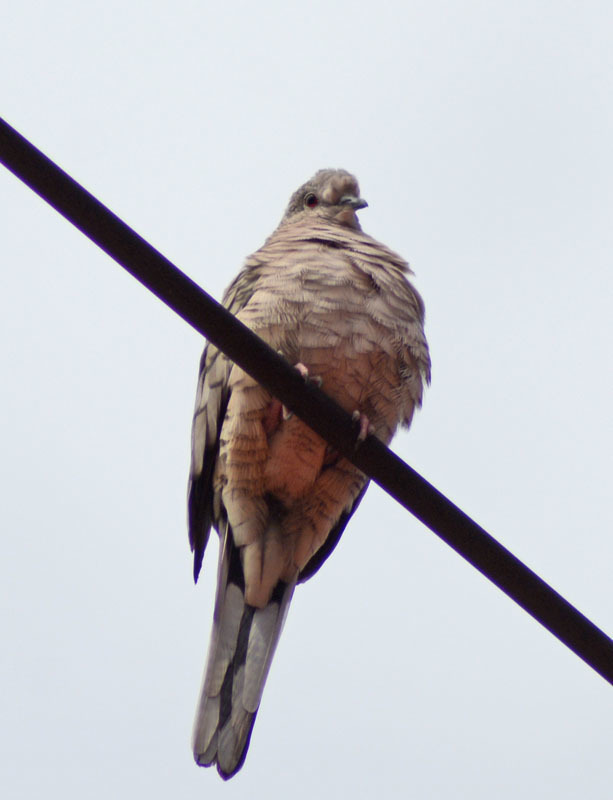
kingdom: Animalia
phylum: Chordata
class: Aves
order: Columbiformes
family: Columbidae
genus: Columbina
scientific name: Columbina inca
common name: Inca dove
